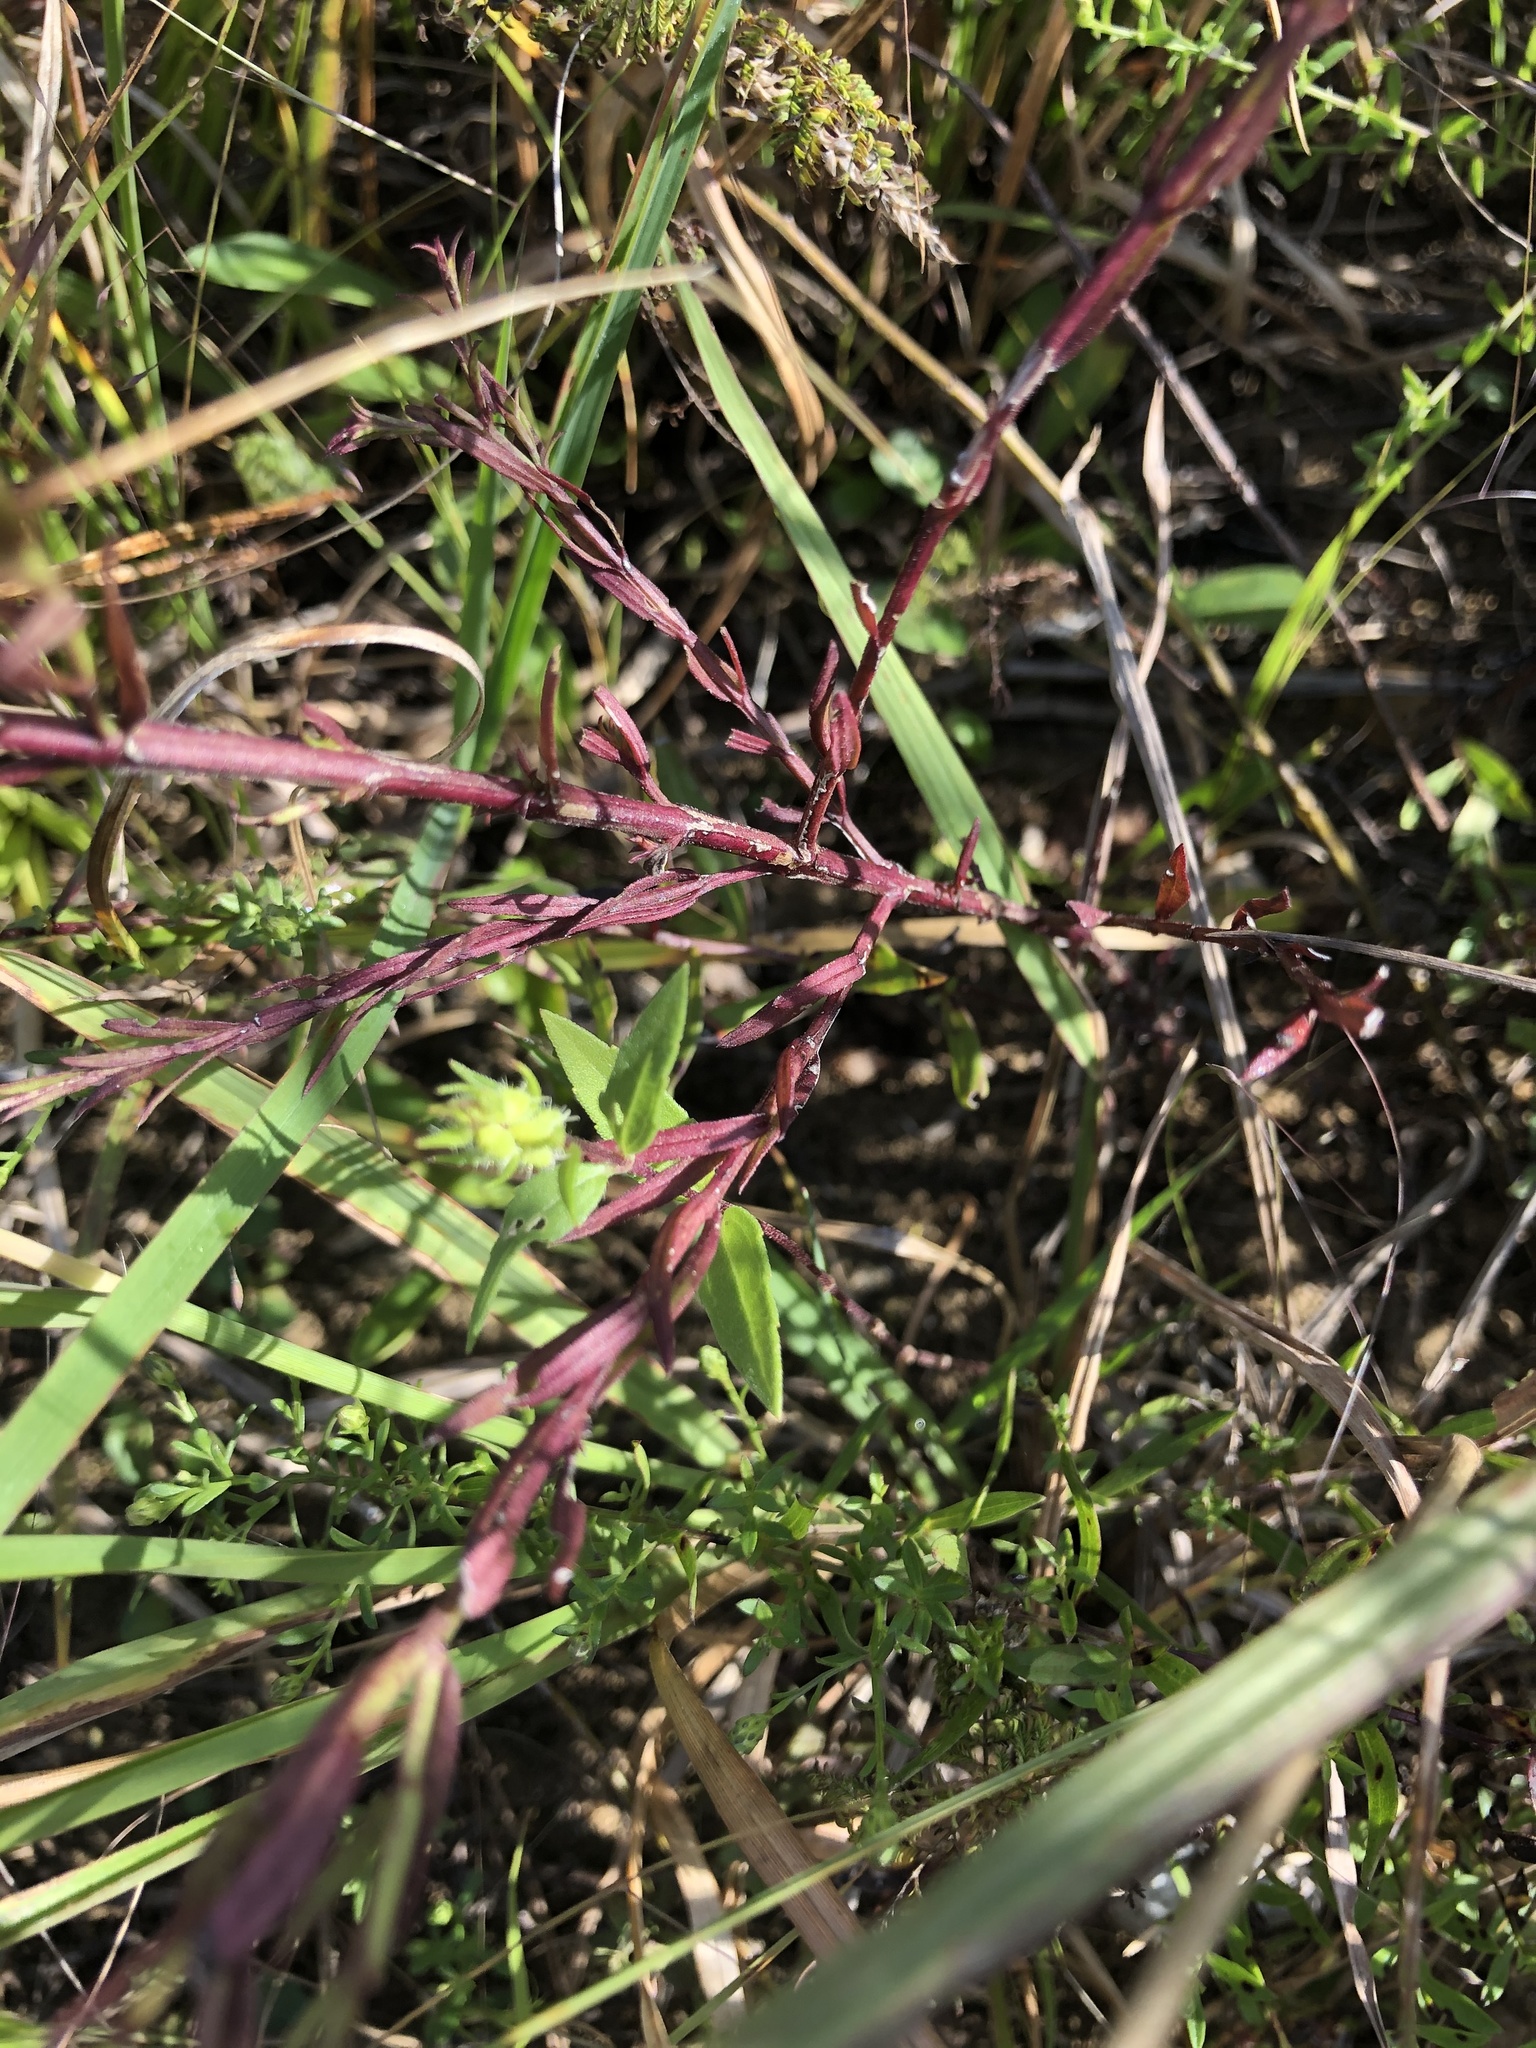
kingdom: Plantae
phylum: Tracheophyta
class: Magnoliopsida
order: Lamiales
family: Orobanchaceae
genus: Agalinis
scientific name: Agalinis heterophylla
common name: Prairie agalinis
